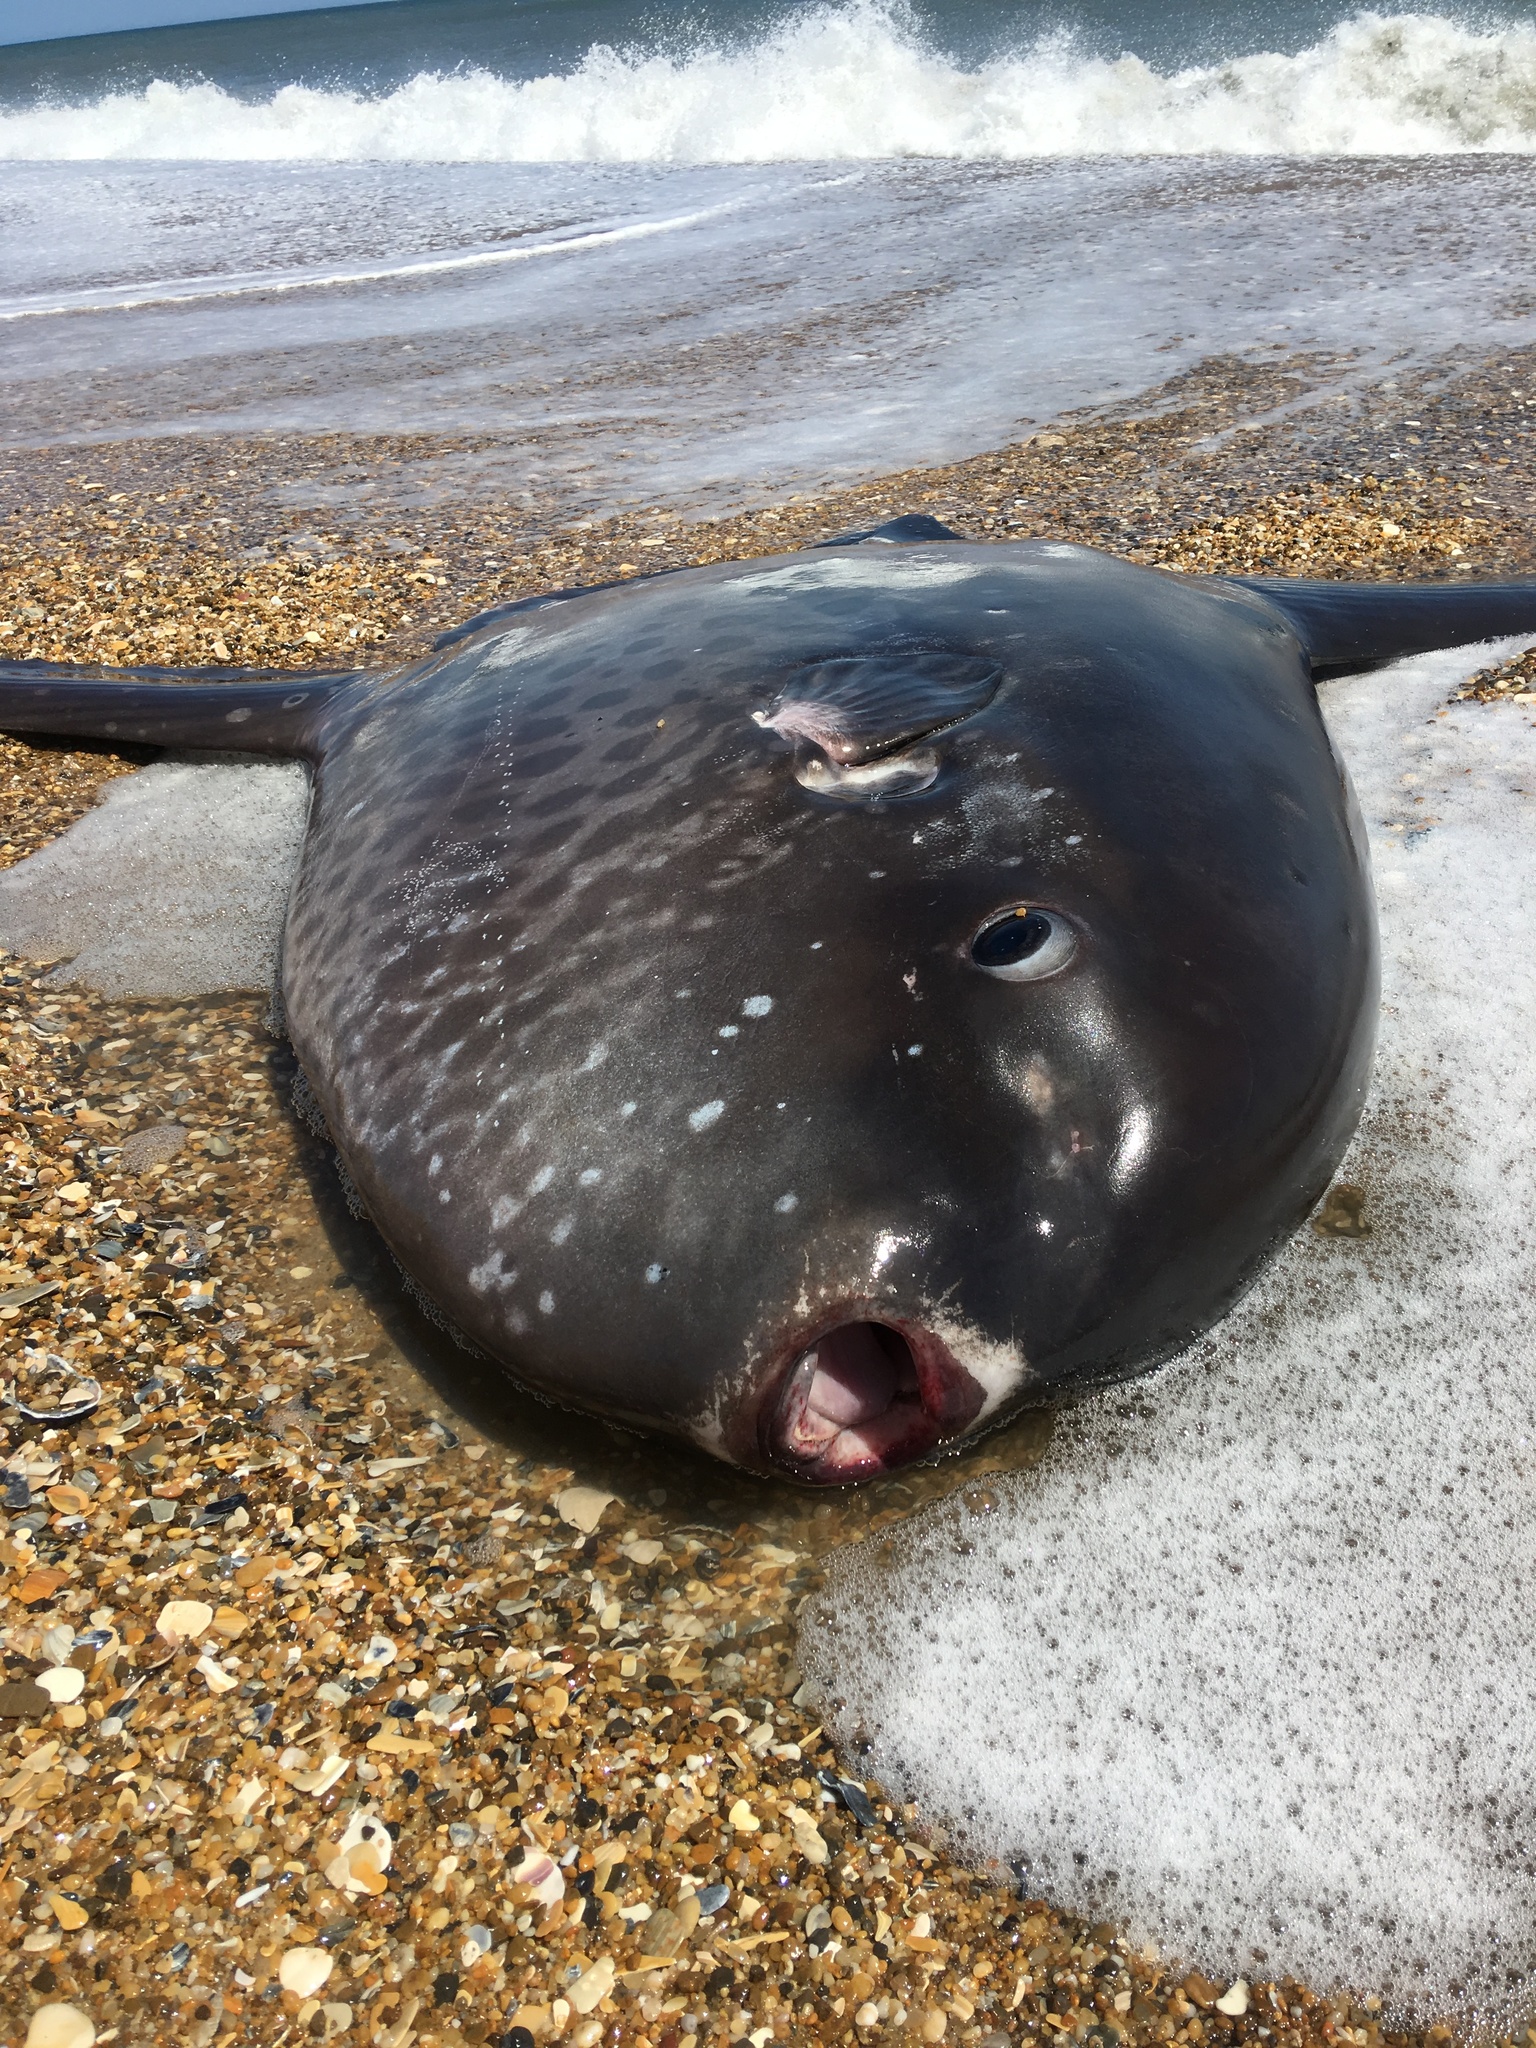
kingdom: Animalia
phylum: Chordata
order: Tetraodontiformes
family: Molidae
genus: Masturus
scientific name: Masturus lanceolatus
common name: Sharpfin sunfish
